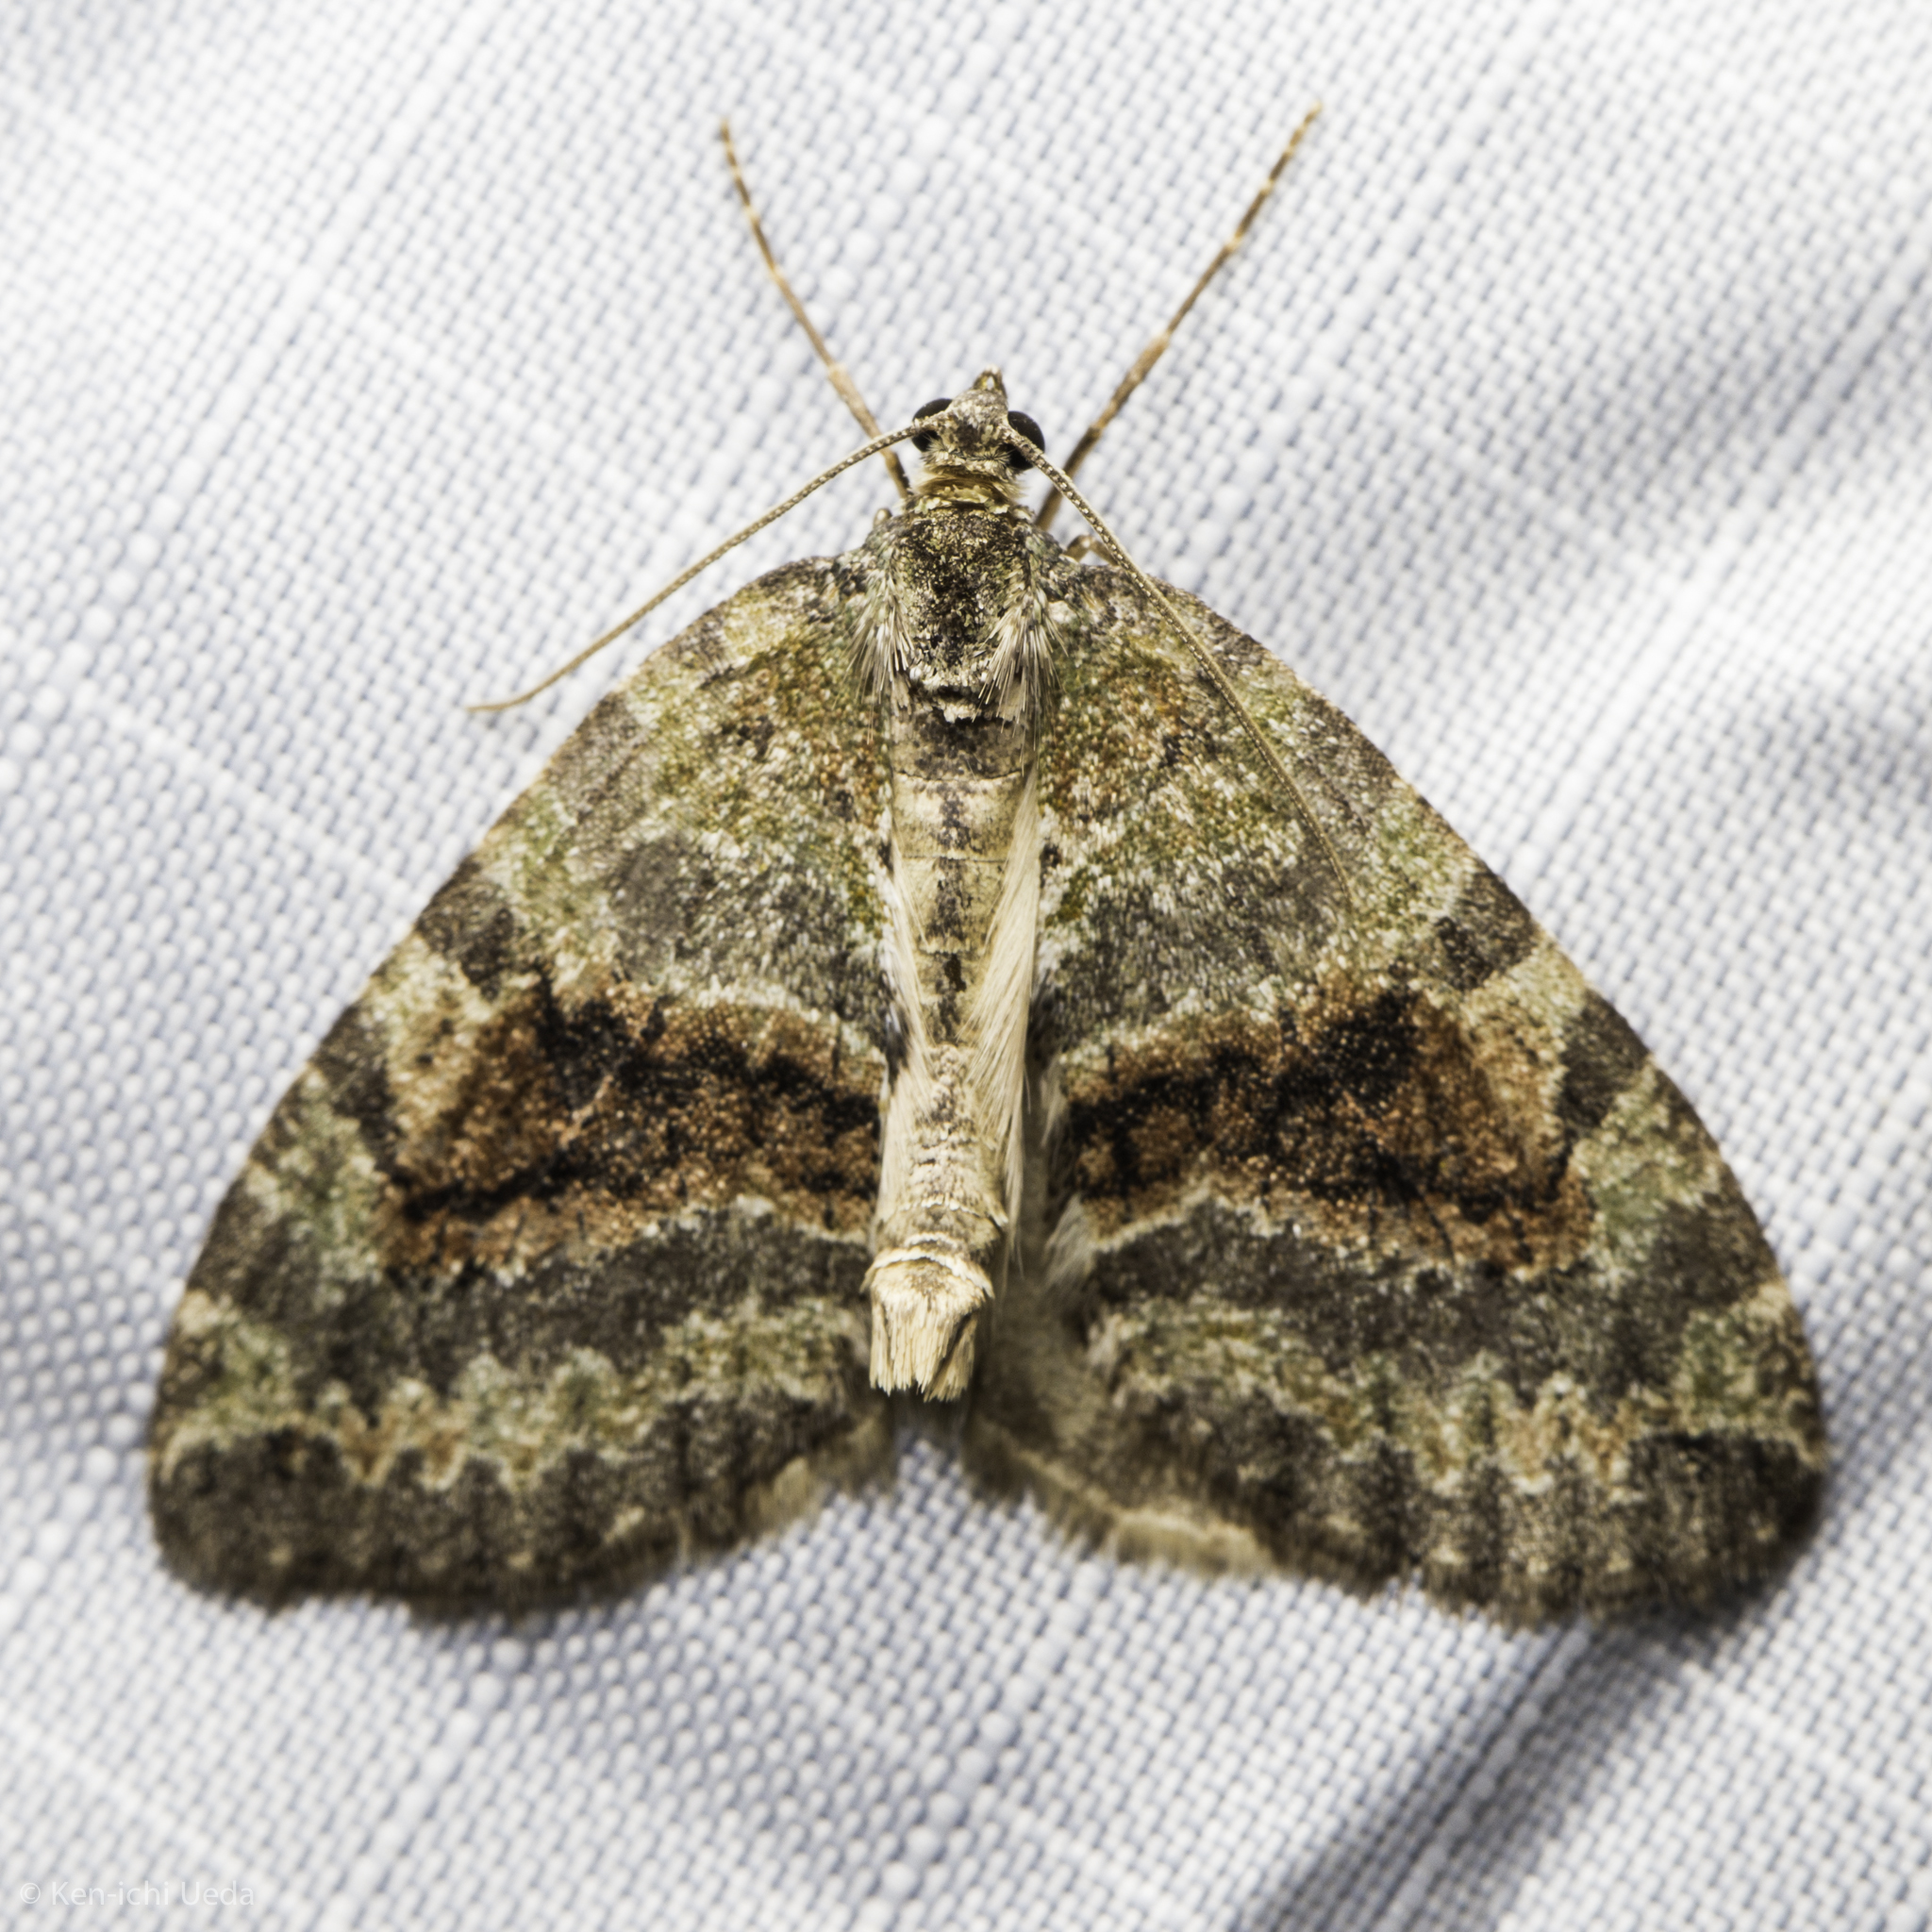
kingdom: Animalia
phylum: Arthropoda
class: Insecta
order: Lepidoptera
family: Geometridae
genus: Hydriomena
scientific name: Hydriomena nubilofasciata
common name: Oak winter highflier moth
